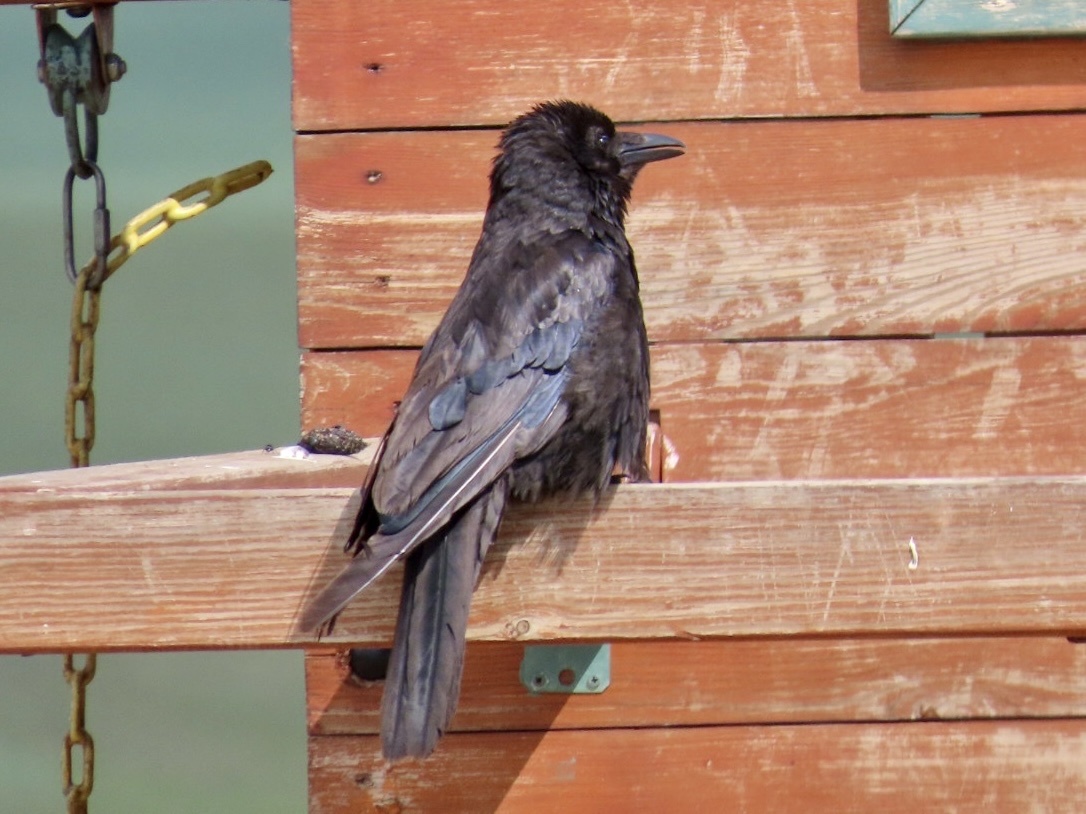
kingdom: Animalia
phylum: Chordata
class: Aves
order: Passeriformes
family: Corvidae
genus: Corvus
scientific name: Corvus corone
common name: Carrion crow
